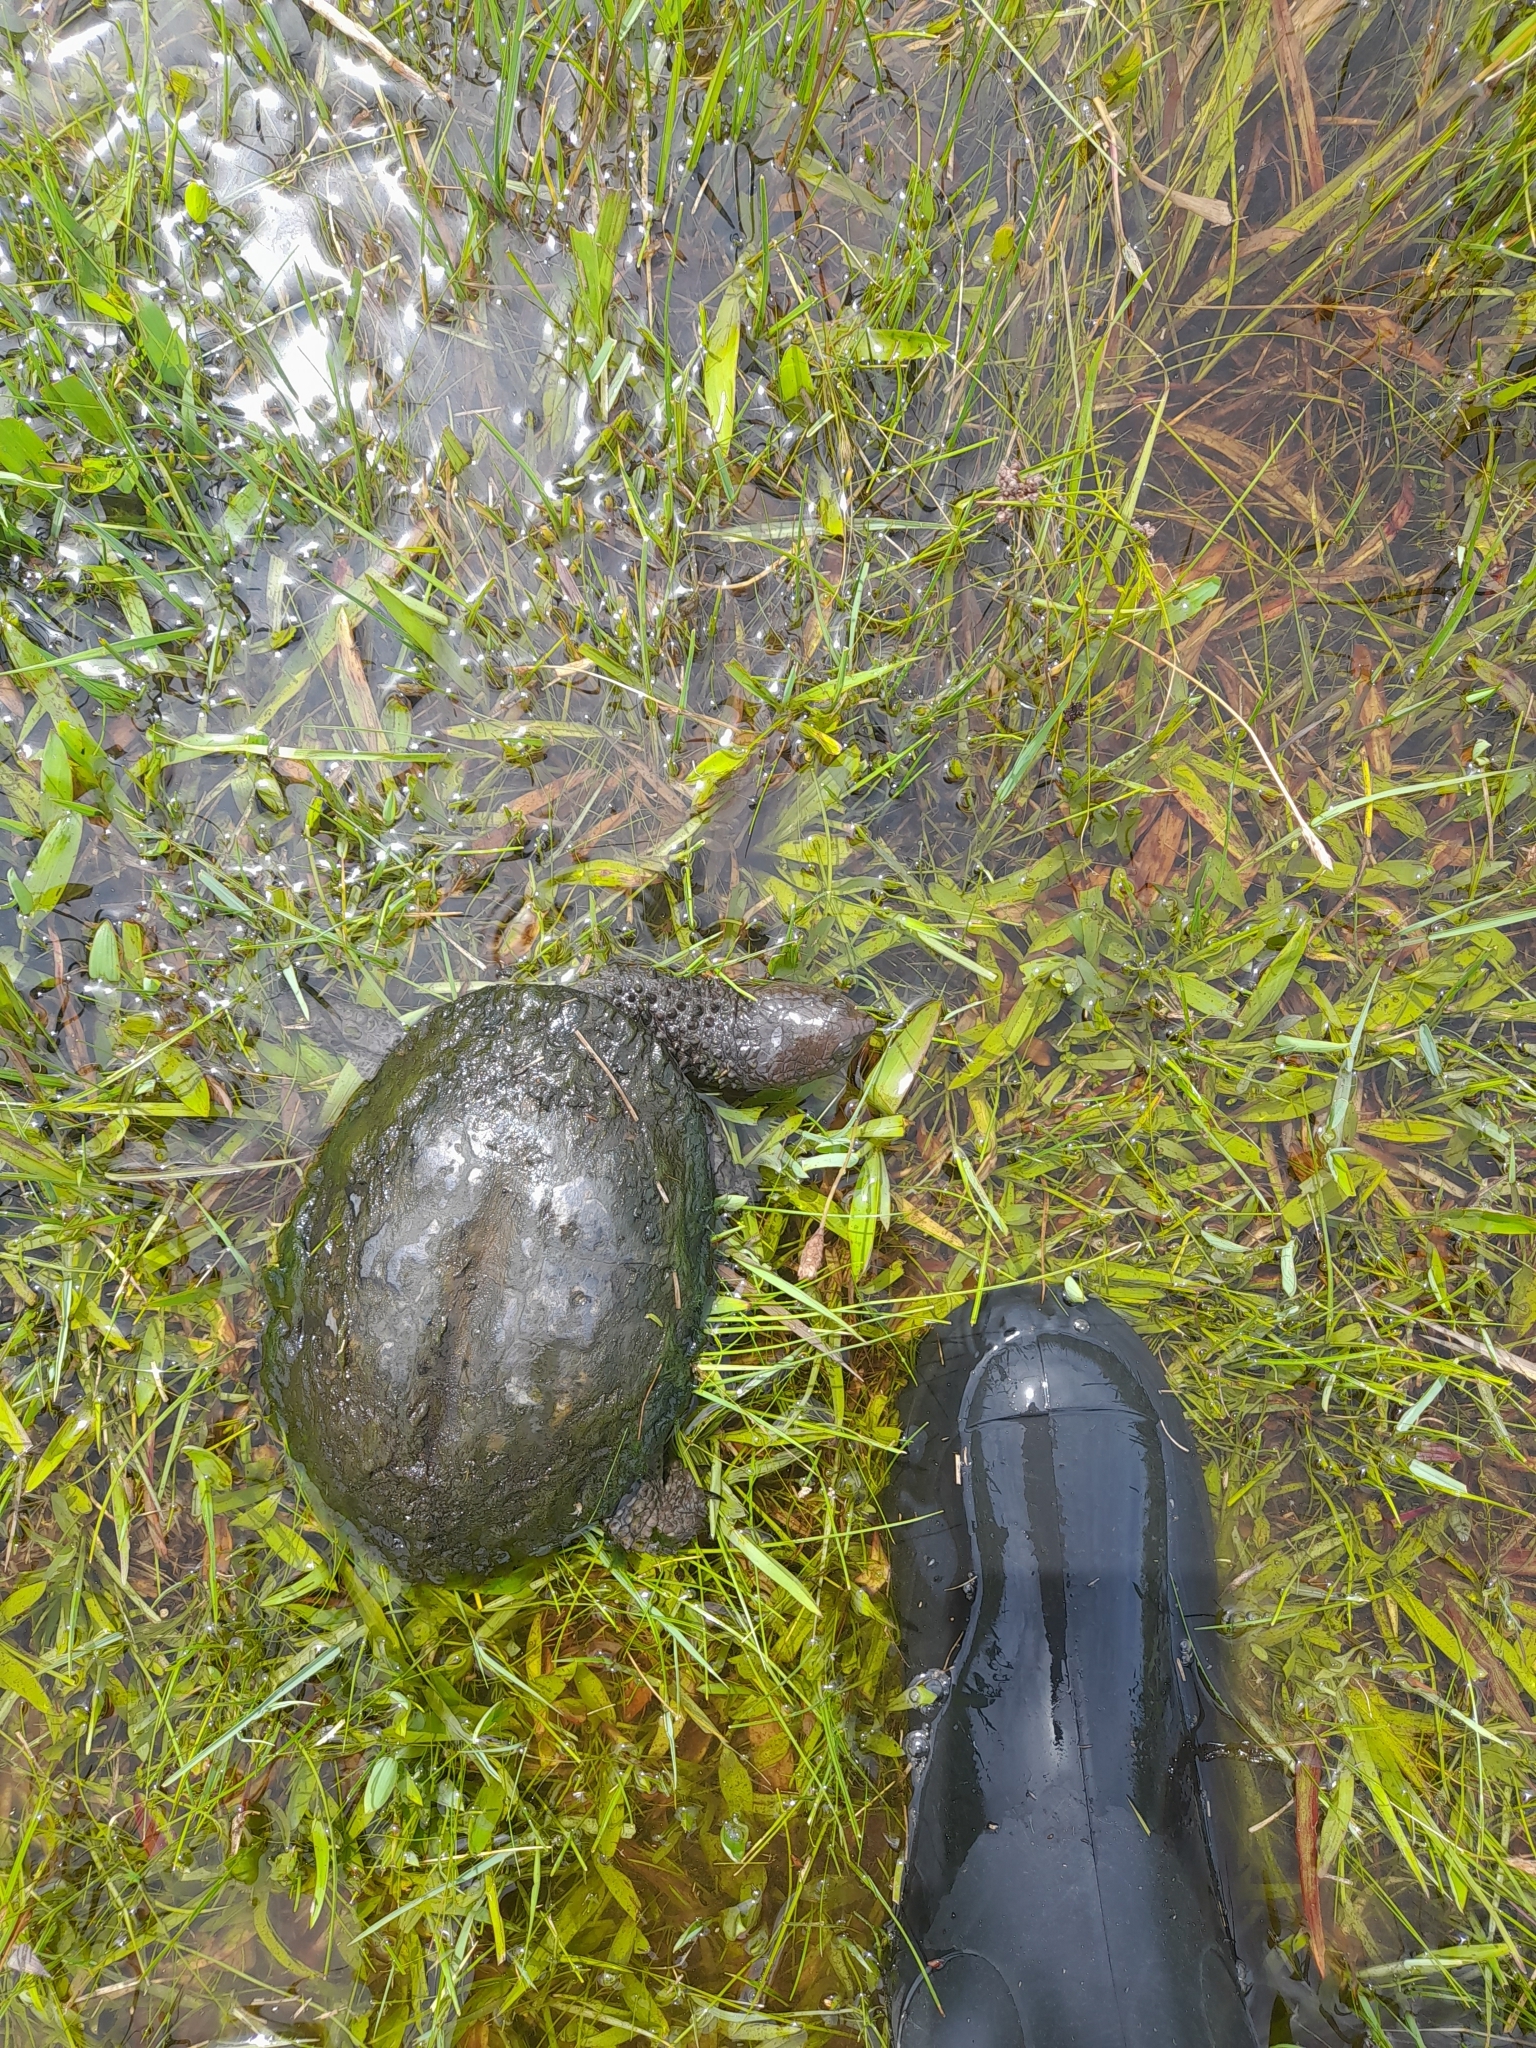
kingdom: Animalia
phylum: Chordata
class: Testudines
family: Chelidae
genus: Acanthochelys
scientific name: Acanthochelys spixii
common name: Black spine-neck swamp turtle
